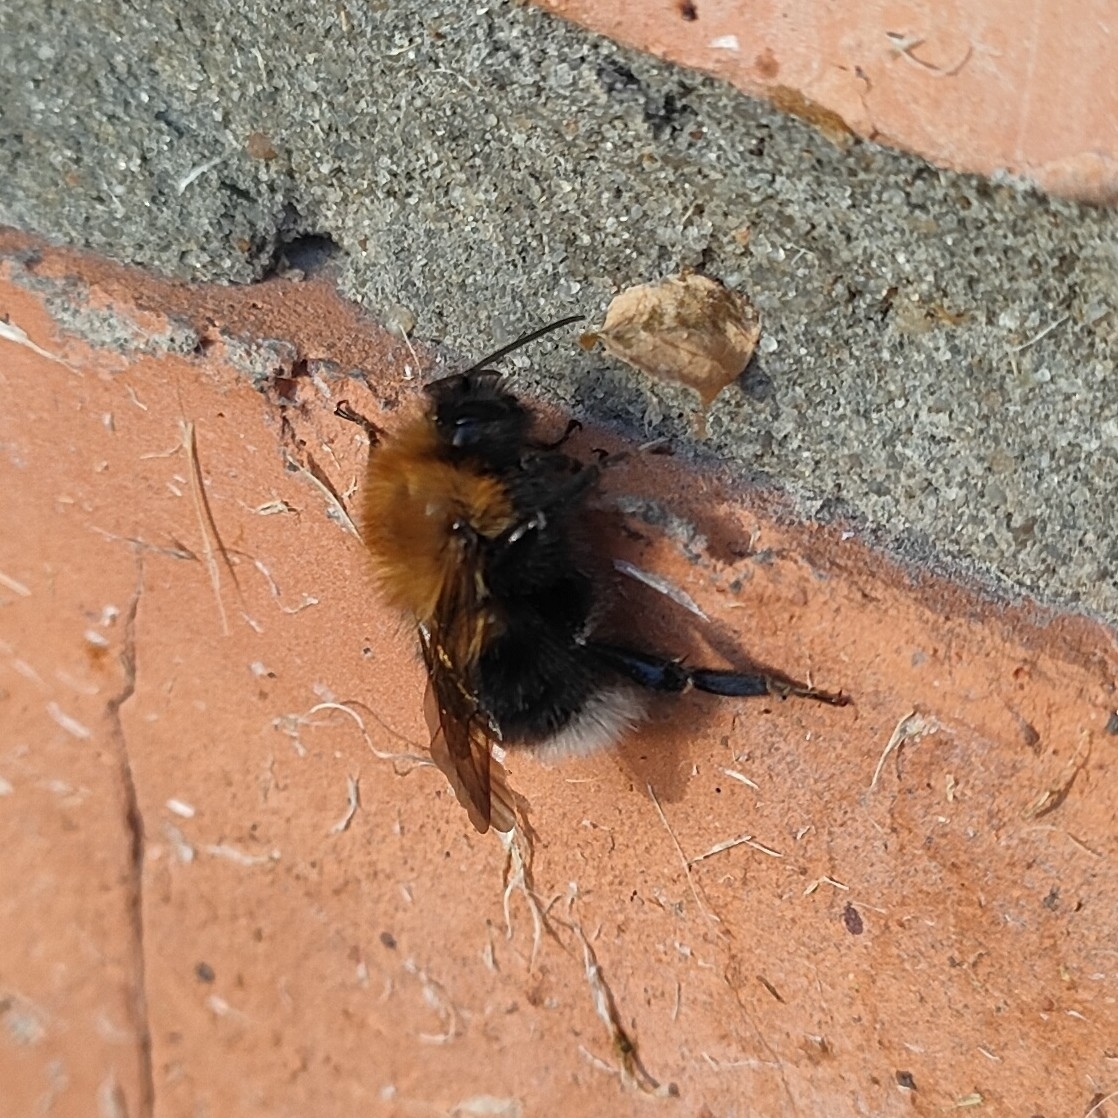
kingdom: Animalia
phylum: Arthropoda
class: Insecta
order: Hymenoptera
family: Apidae
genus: Bombus
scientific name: Bombus hypnorum
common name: New garden bumblebee
